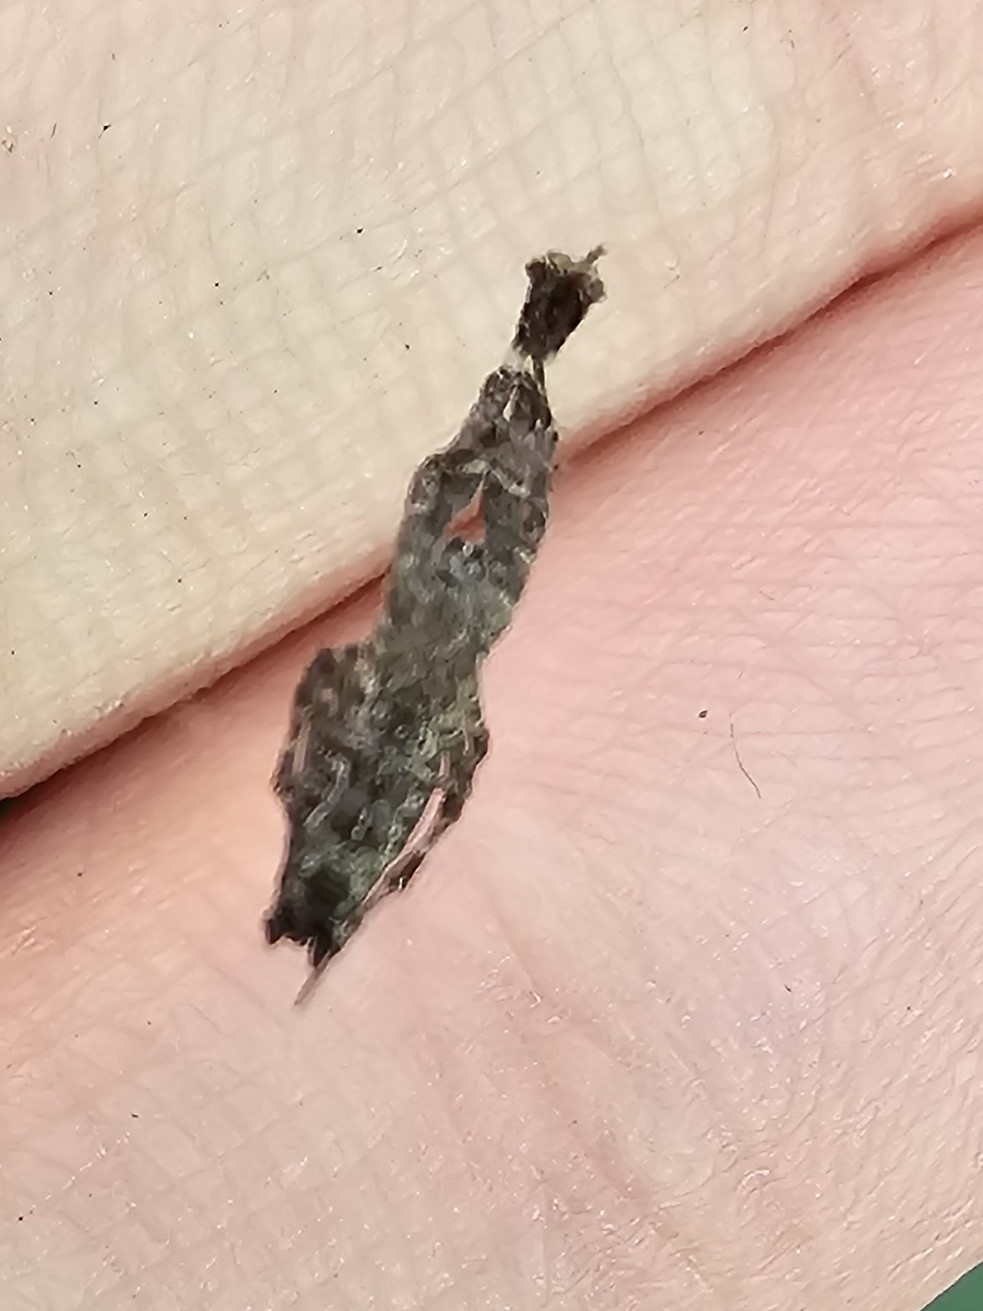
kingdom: Animalia
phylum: Arthropoda
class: Arachnida
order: Araneae
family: Uloboridae
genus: Uloborus
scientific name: Uloborus plumipes
